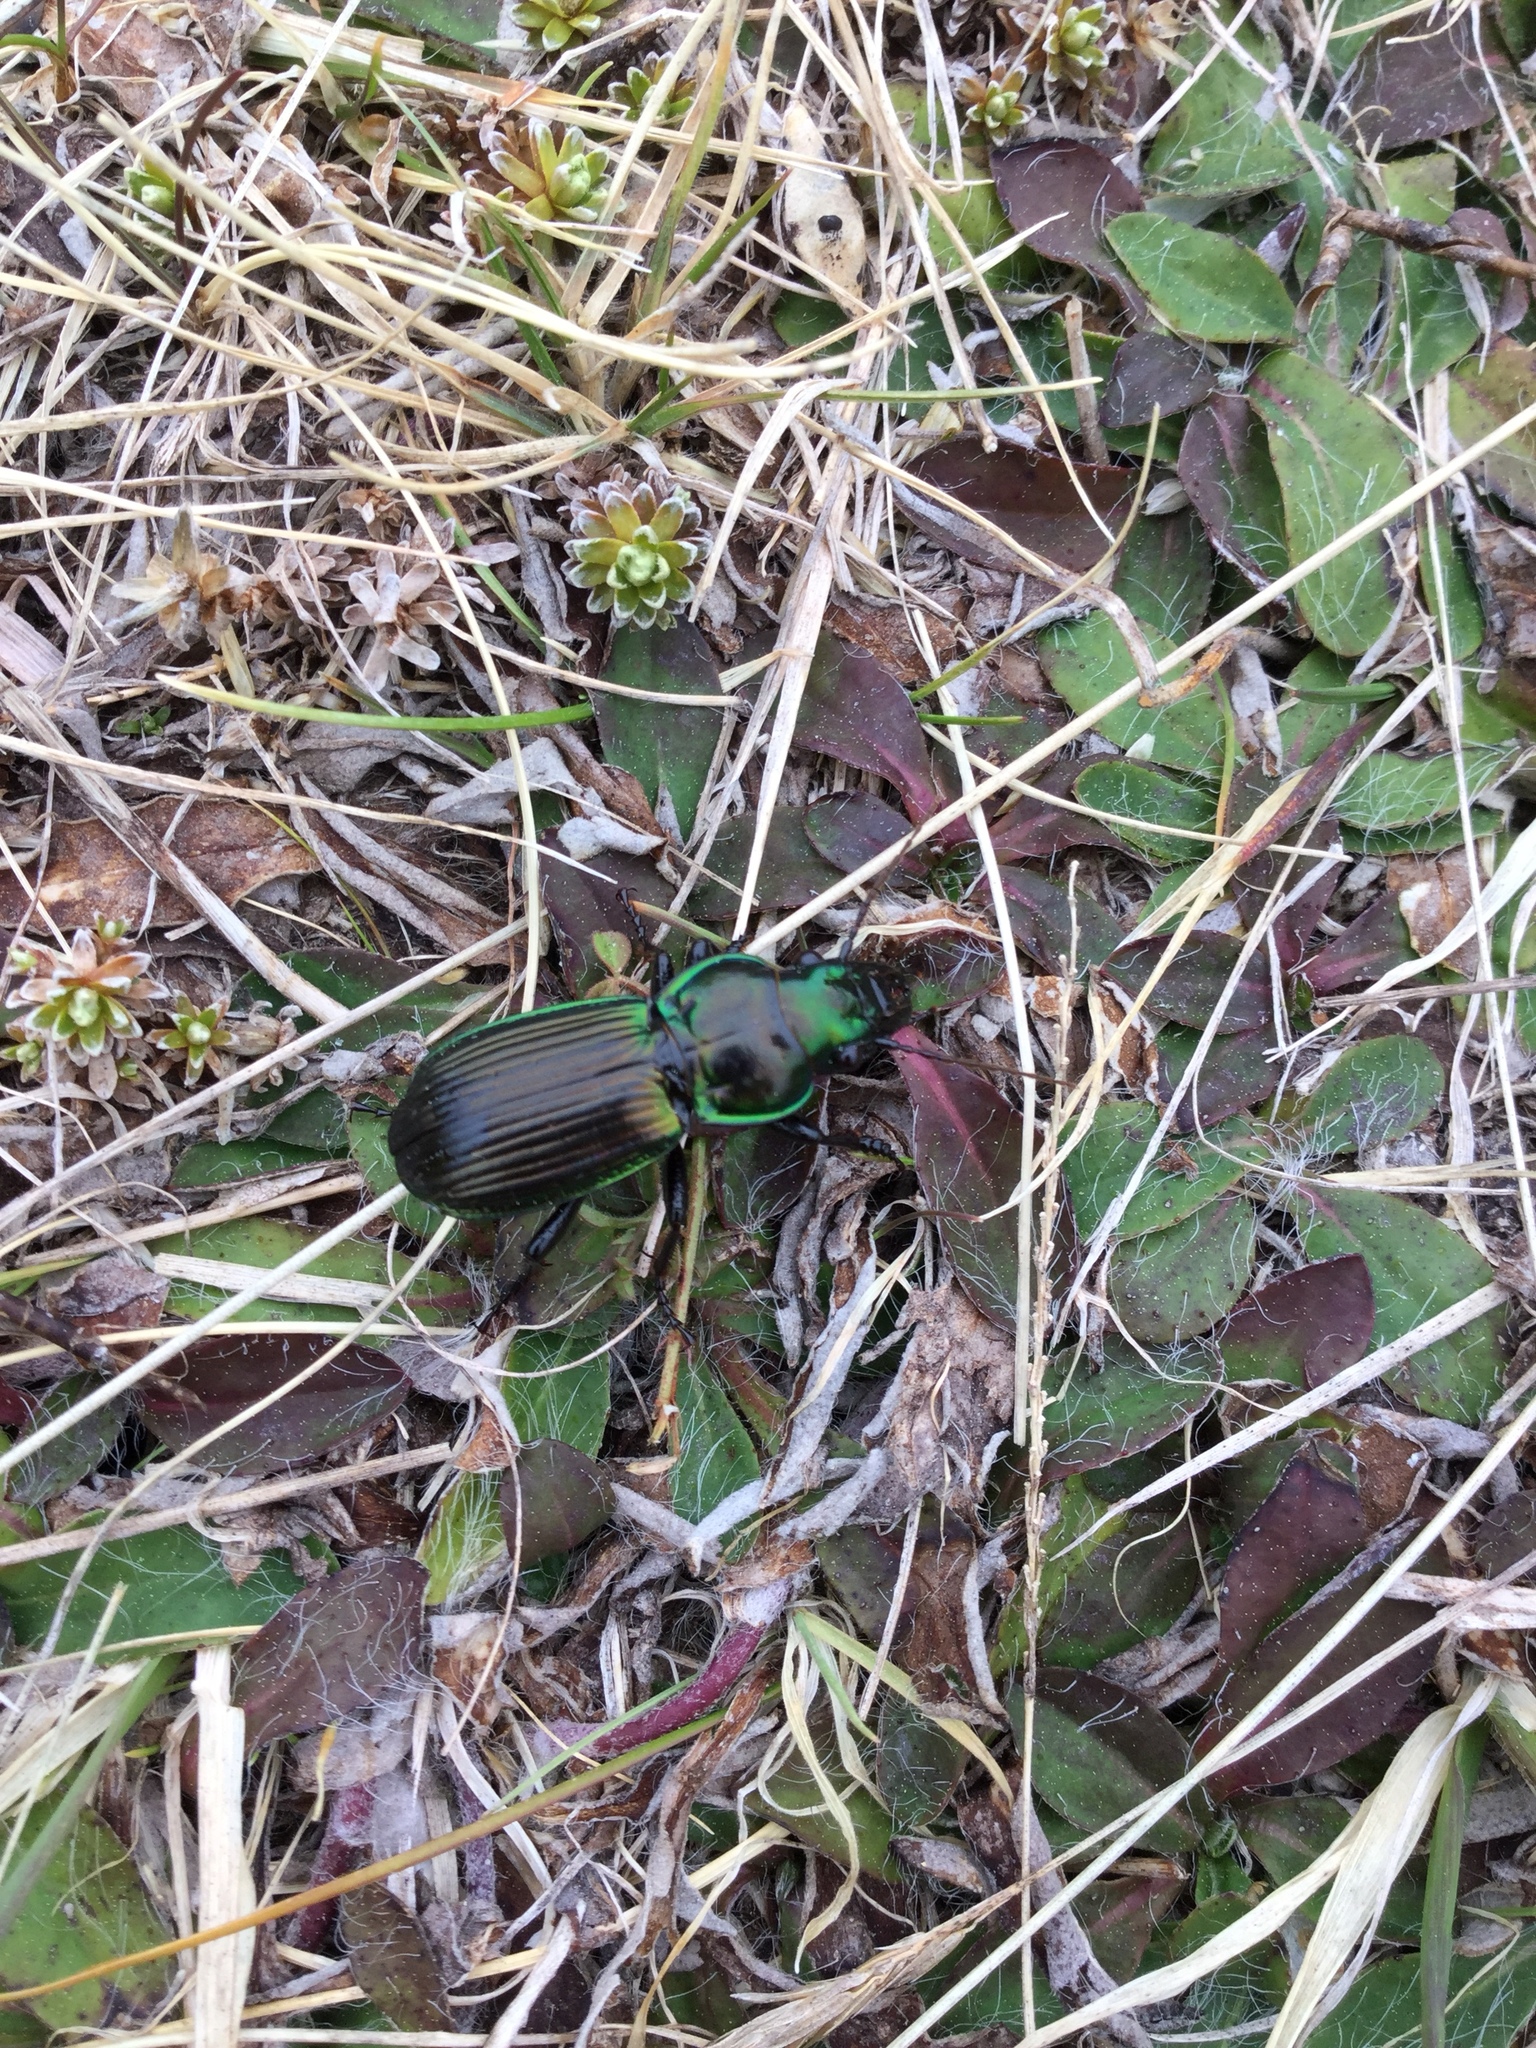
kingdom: Animalia
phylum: Arthropoda
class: Insecta
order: Coleoptera
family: Carabidae
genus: Megadromus
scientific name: Megadromus antarcticus
